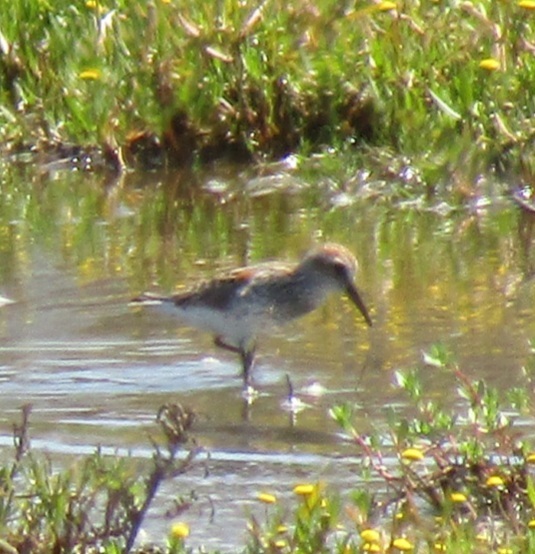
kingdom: Animalia
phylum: Chordata
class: Aves
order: Charadriiformes
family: Scolopacidae
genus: Calidris
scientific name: Calidris mauri
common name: Western sandpiper
